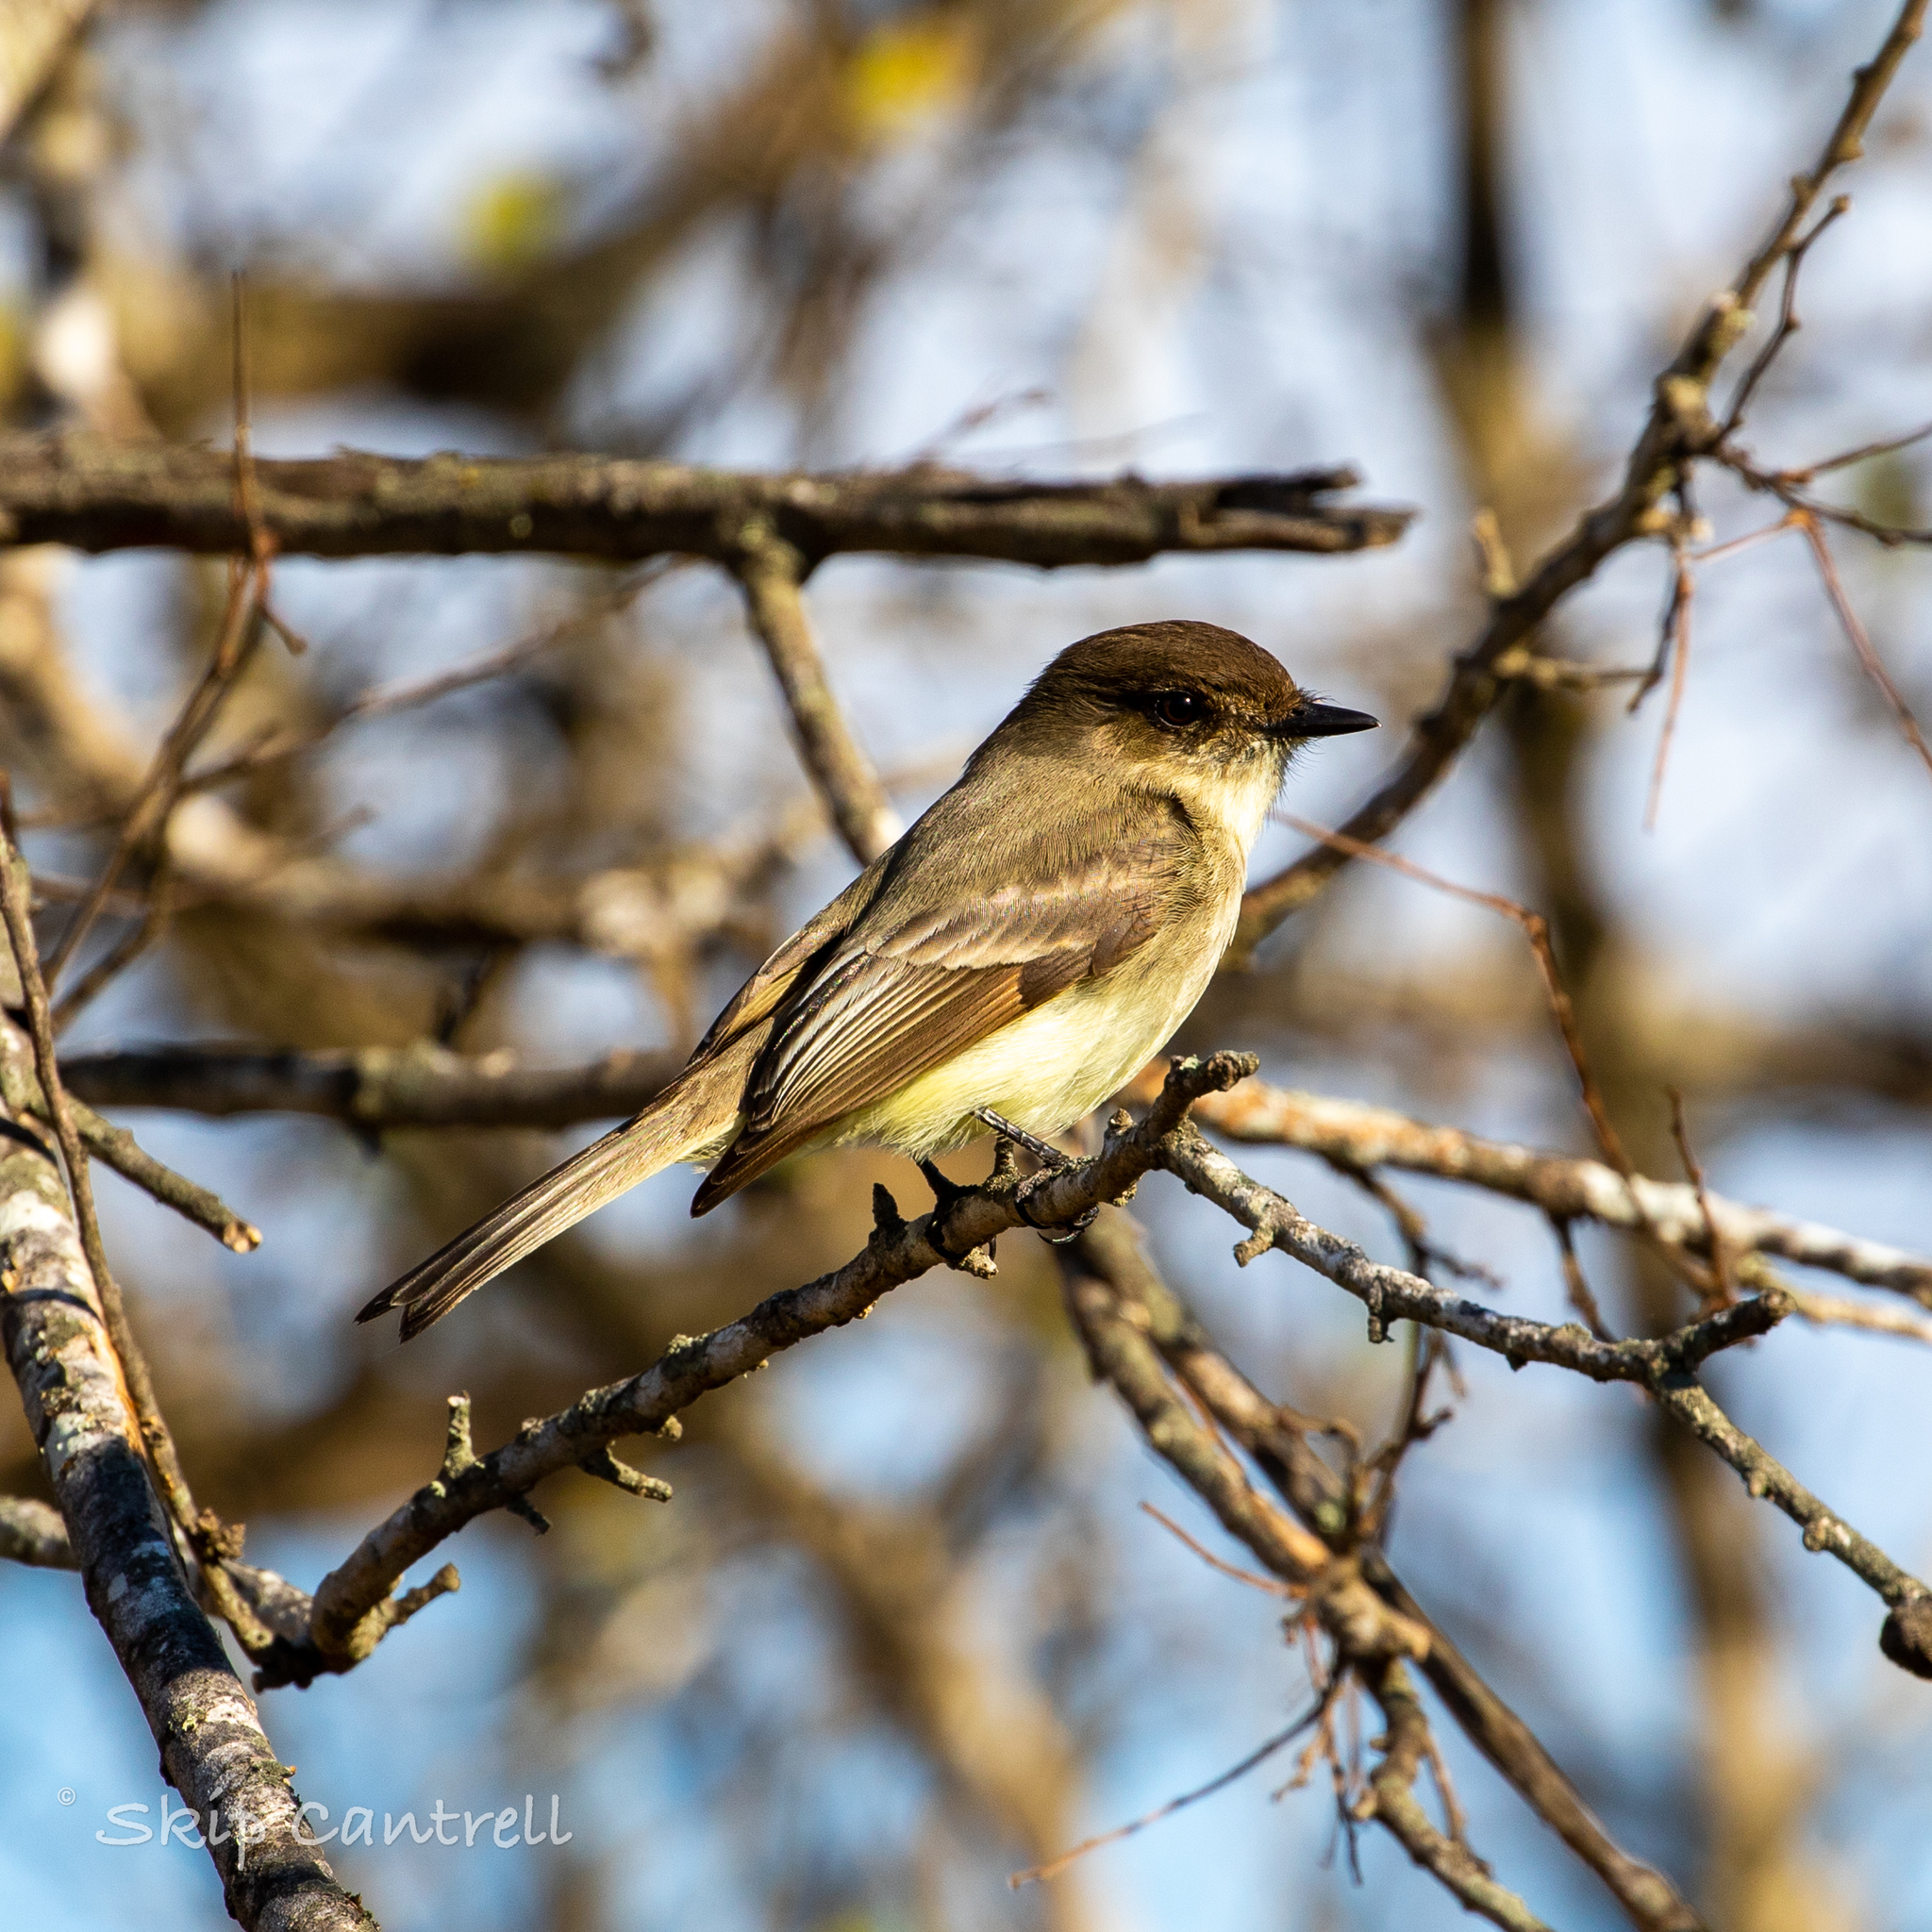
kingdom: Animalia
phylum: Chordata
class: Aves
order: Passeriformes
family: Tyrannidae
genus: Sayornis
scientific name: Sayornis phoebe
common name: Eastern phoebe
